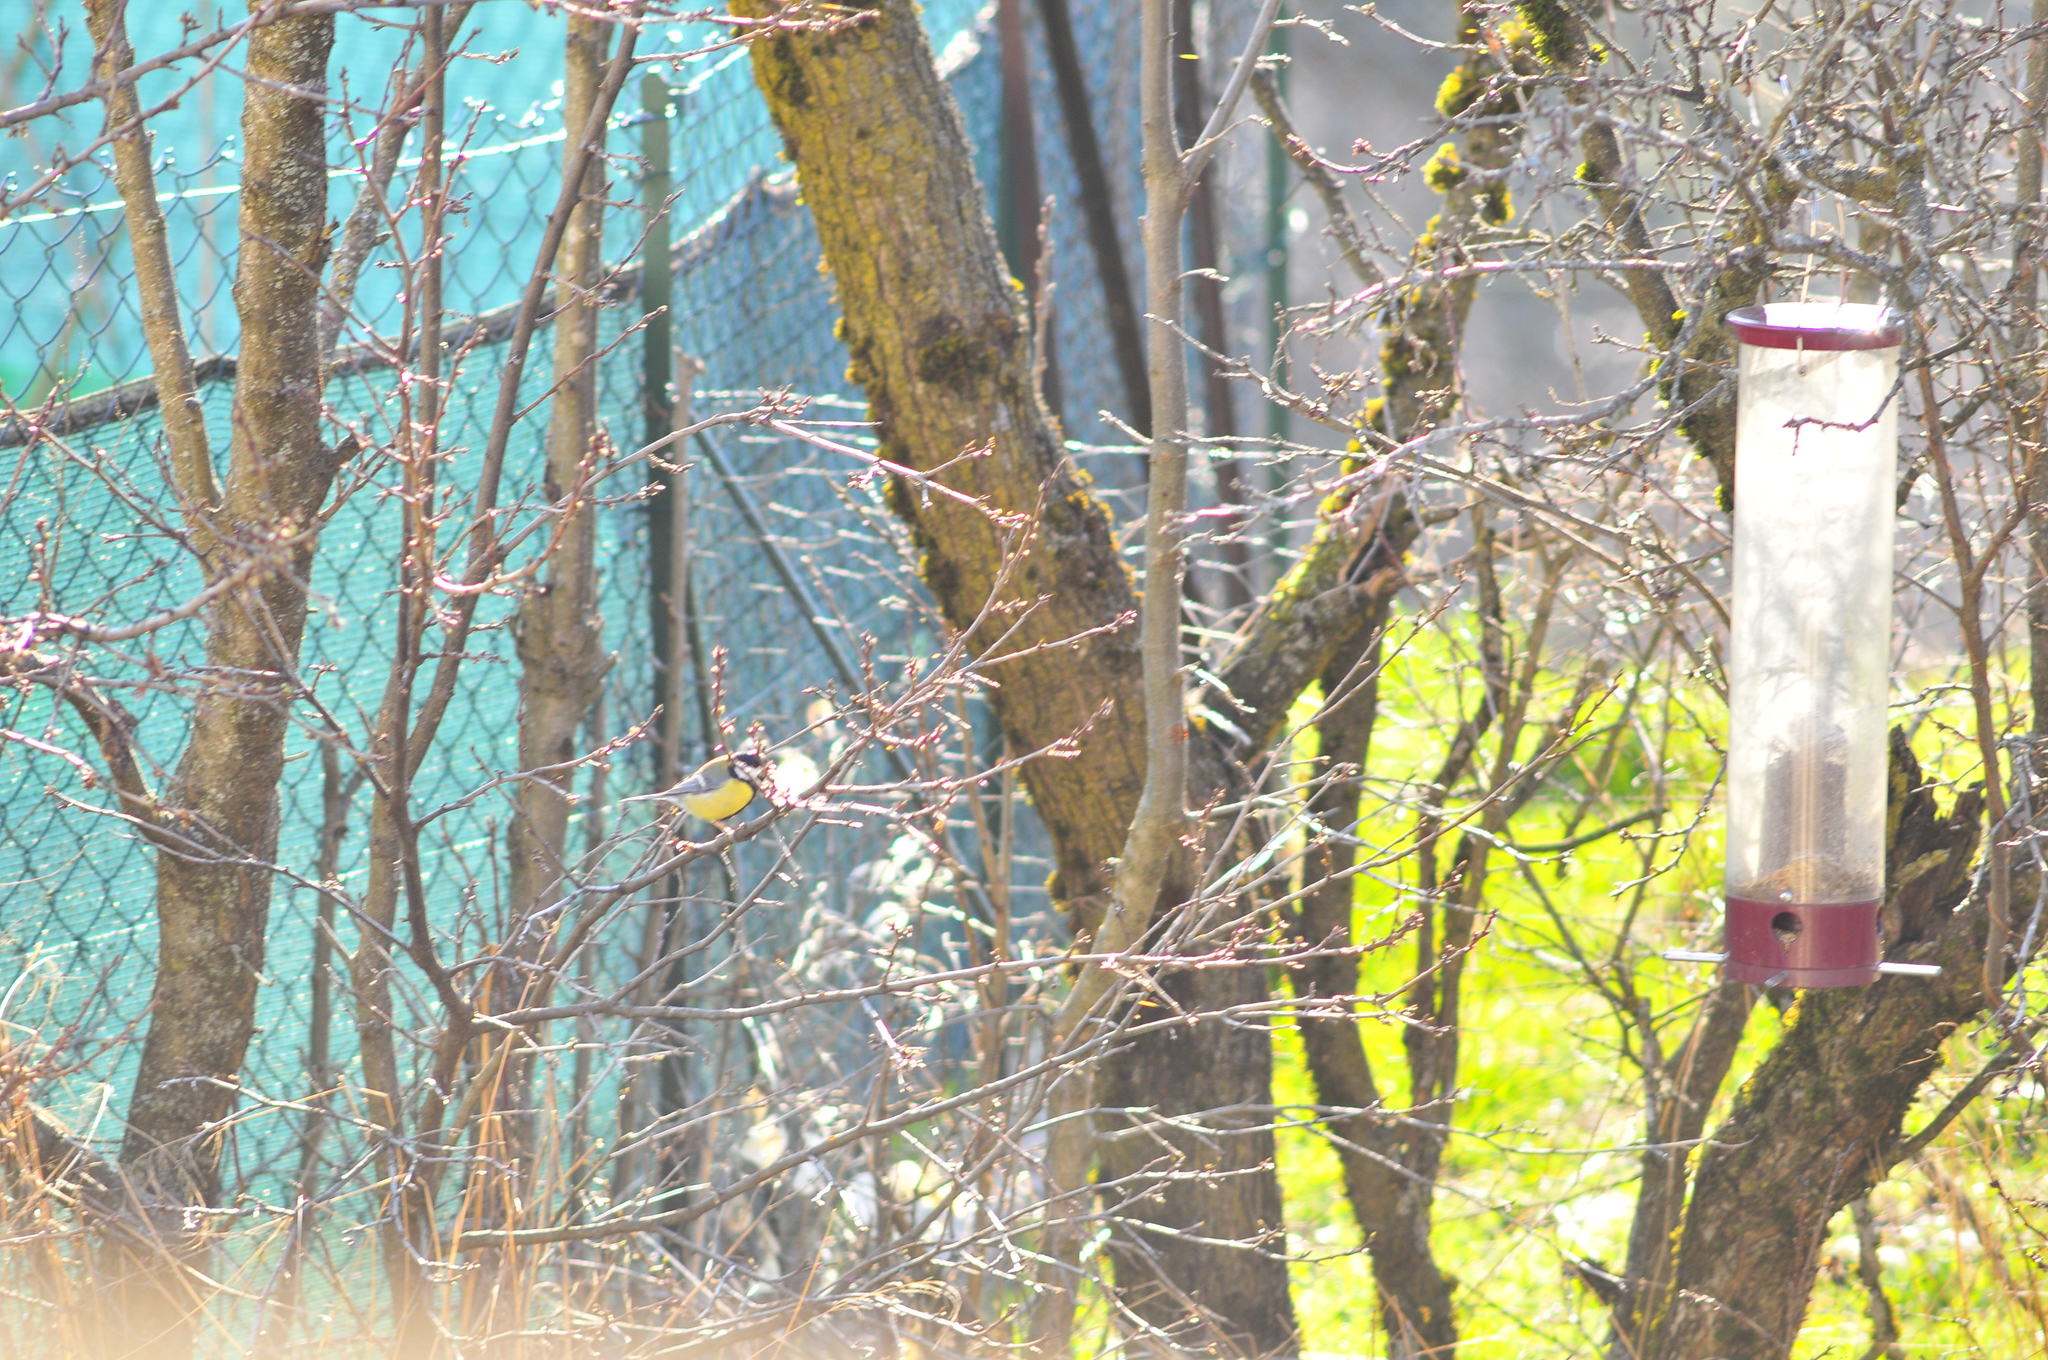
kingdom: Animalia
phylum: Chordata
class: Aves
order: Passeriformes
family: Paridae
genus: Parus
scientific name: Parus major
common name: Great tit
